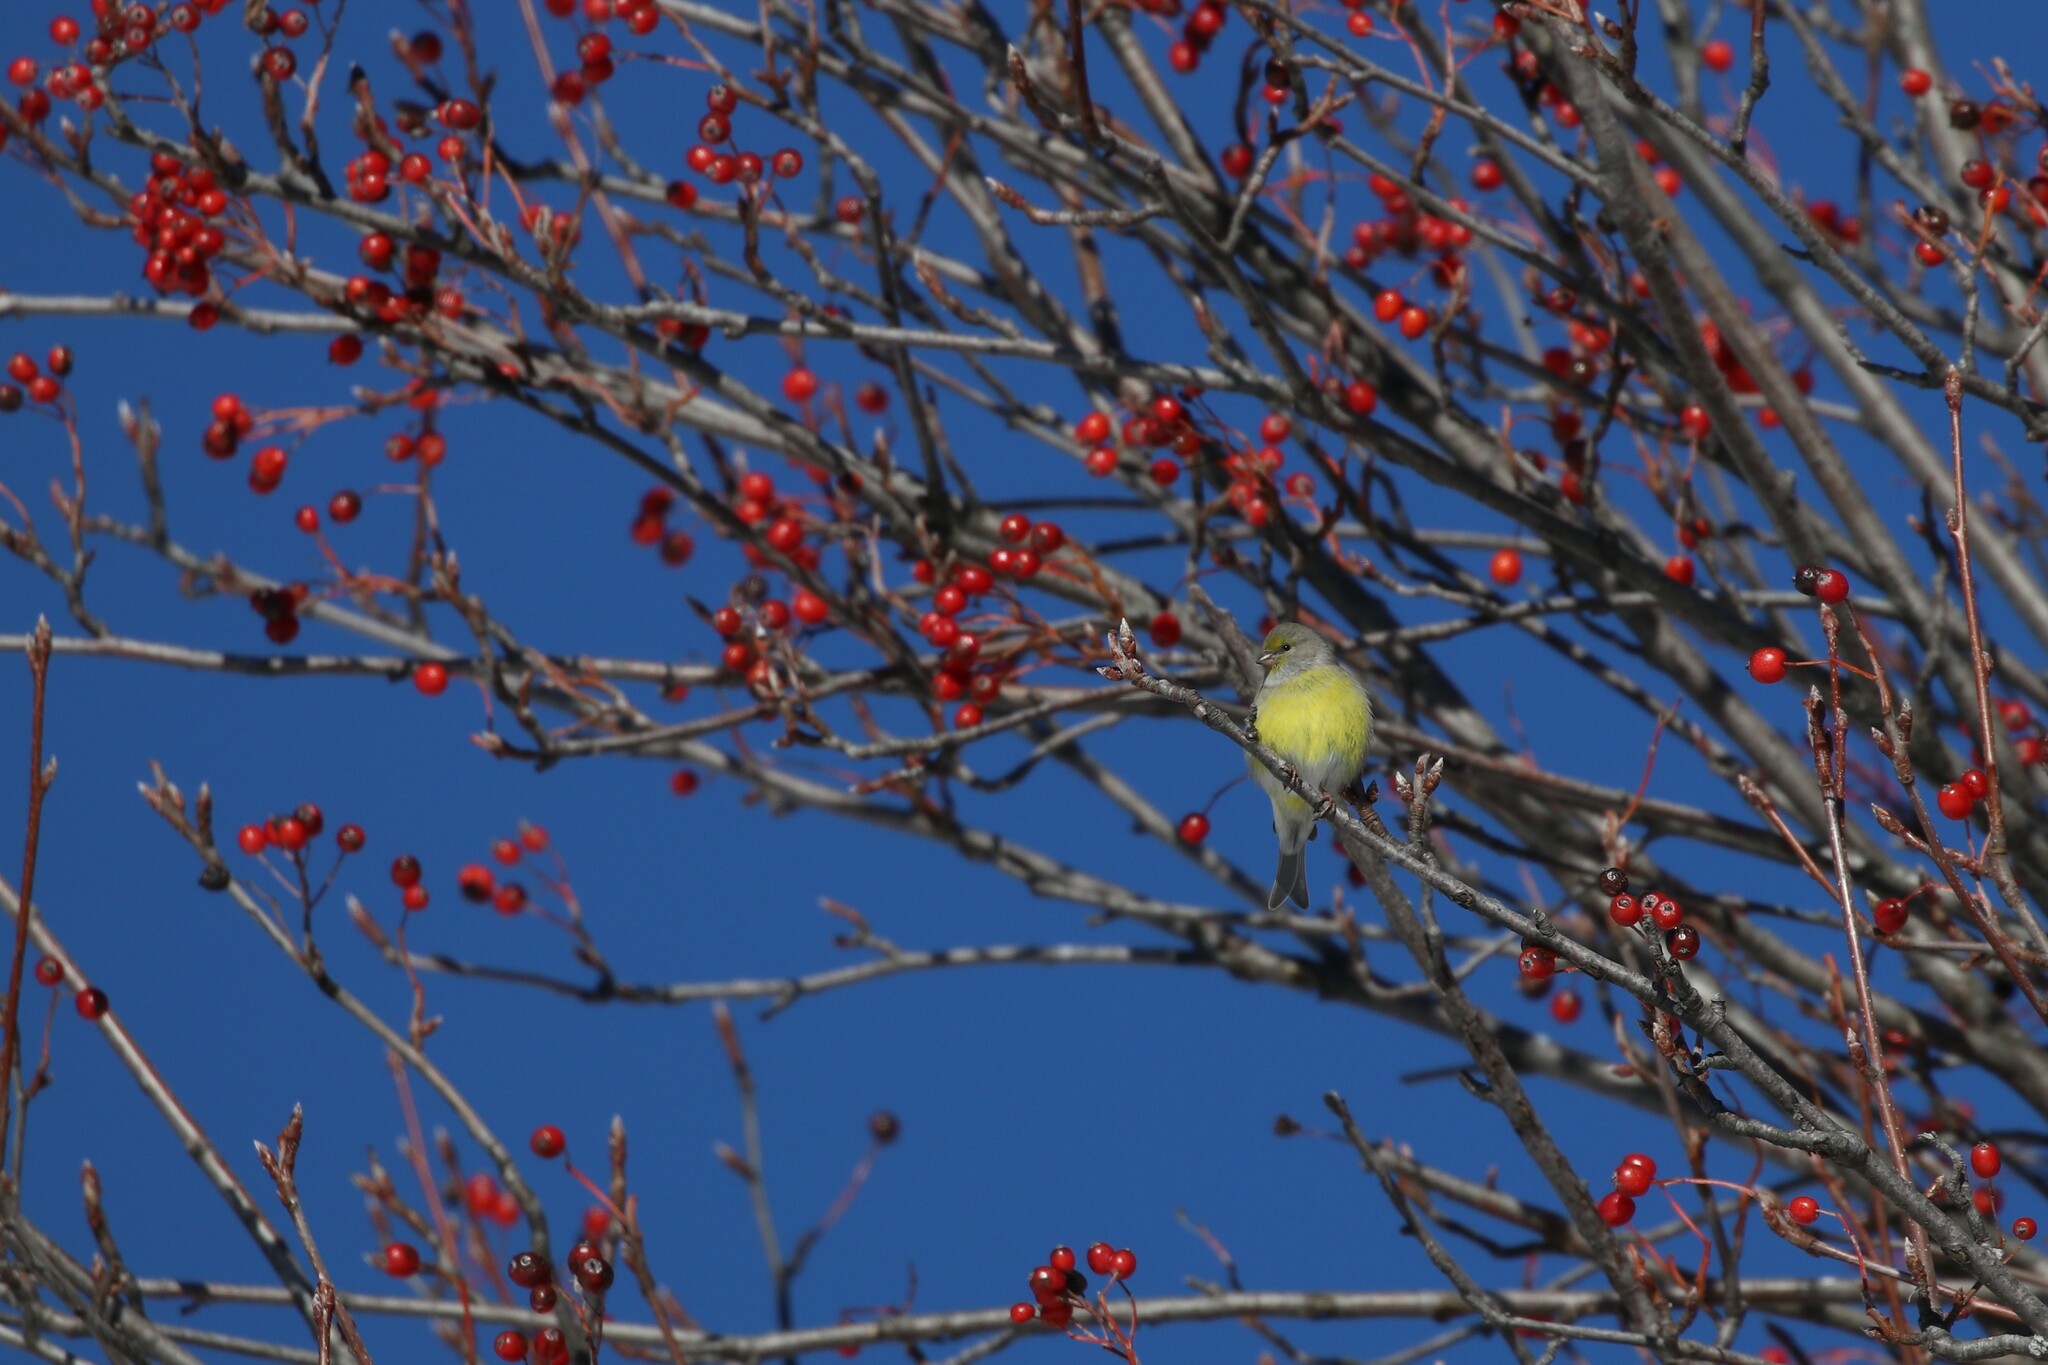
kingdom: Animalia
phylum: Chordata
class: Aves
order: Passeriformes
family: Fringillidae
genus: Carduelis
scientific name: Carduelis citrinella
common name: Citril finch
